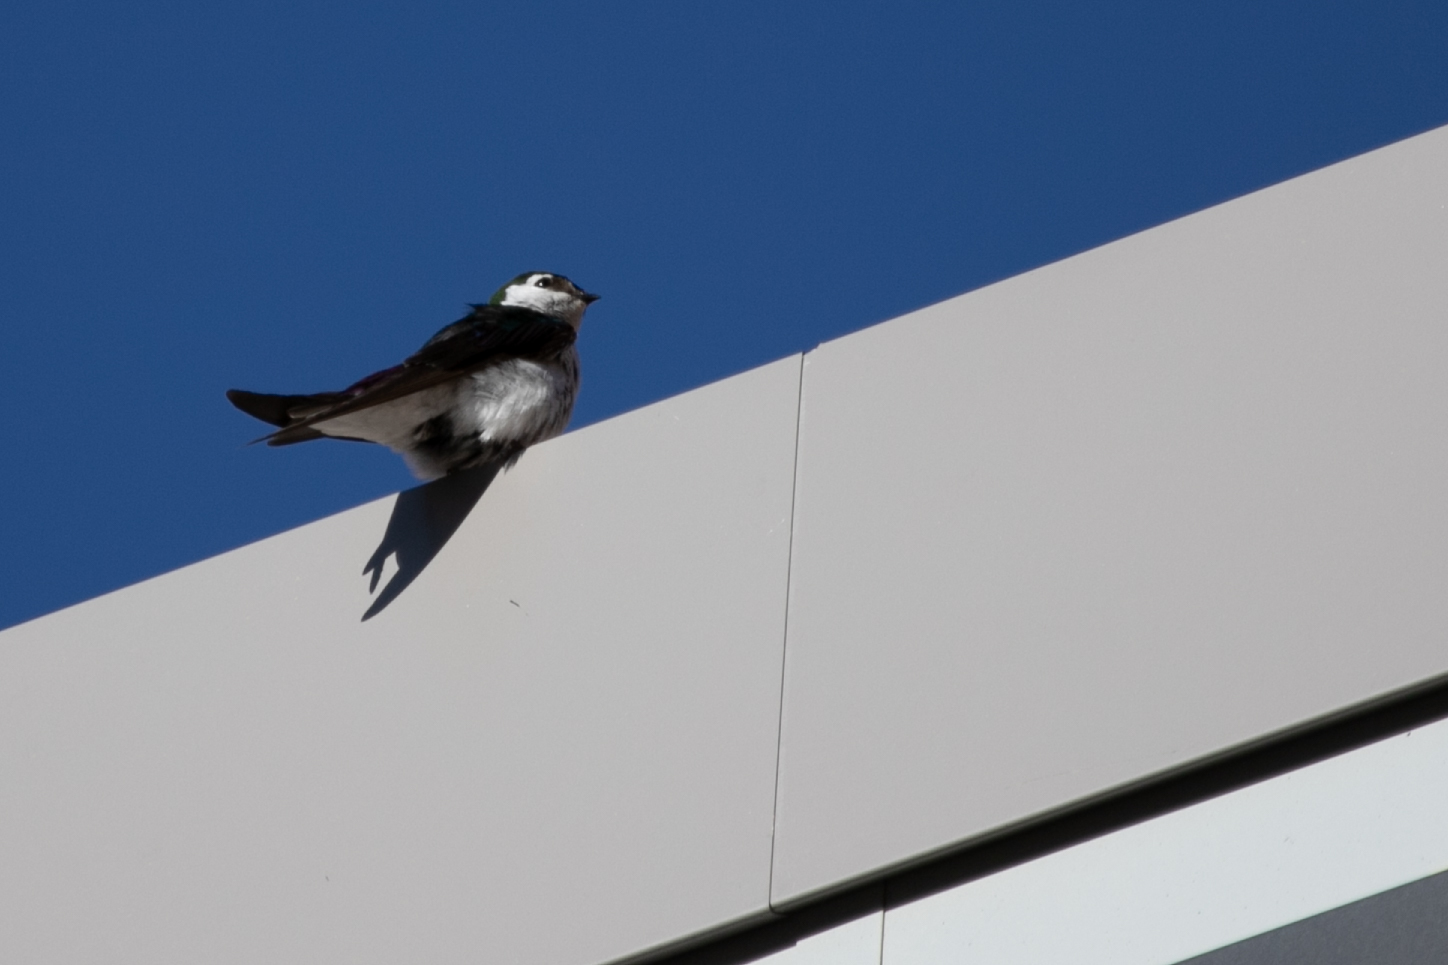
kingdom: Animalia
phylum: Chordata
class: Aves
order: Passeriformes
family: Hirundinidae
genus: Tachycineta
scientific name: Tachycineta thalassina
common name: Violet-green swallow
